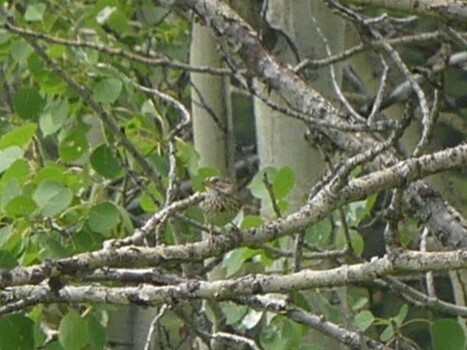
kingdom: Animalia
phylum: Chordata
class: Aves
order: Passeriformes
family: Passerellidae
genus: Melospiza
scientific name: Melospiza lincolnii
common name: Lincoln's sparrow
